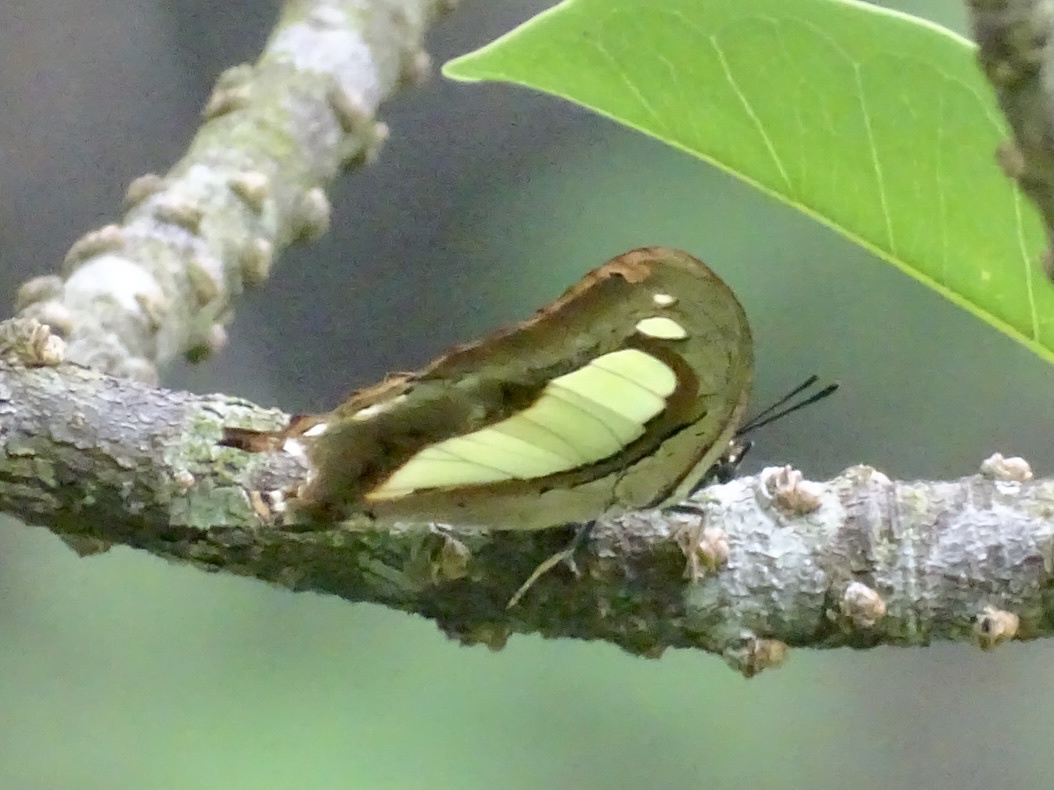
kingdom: Animalia
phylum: Arthropoda
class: Insecta
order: Lepidoptera
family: Nymphalidae
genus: Polyura
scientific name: Polyura athamas
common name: Common nawab
